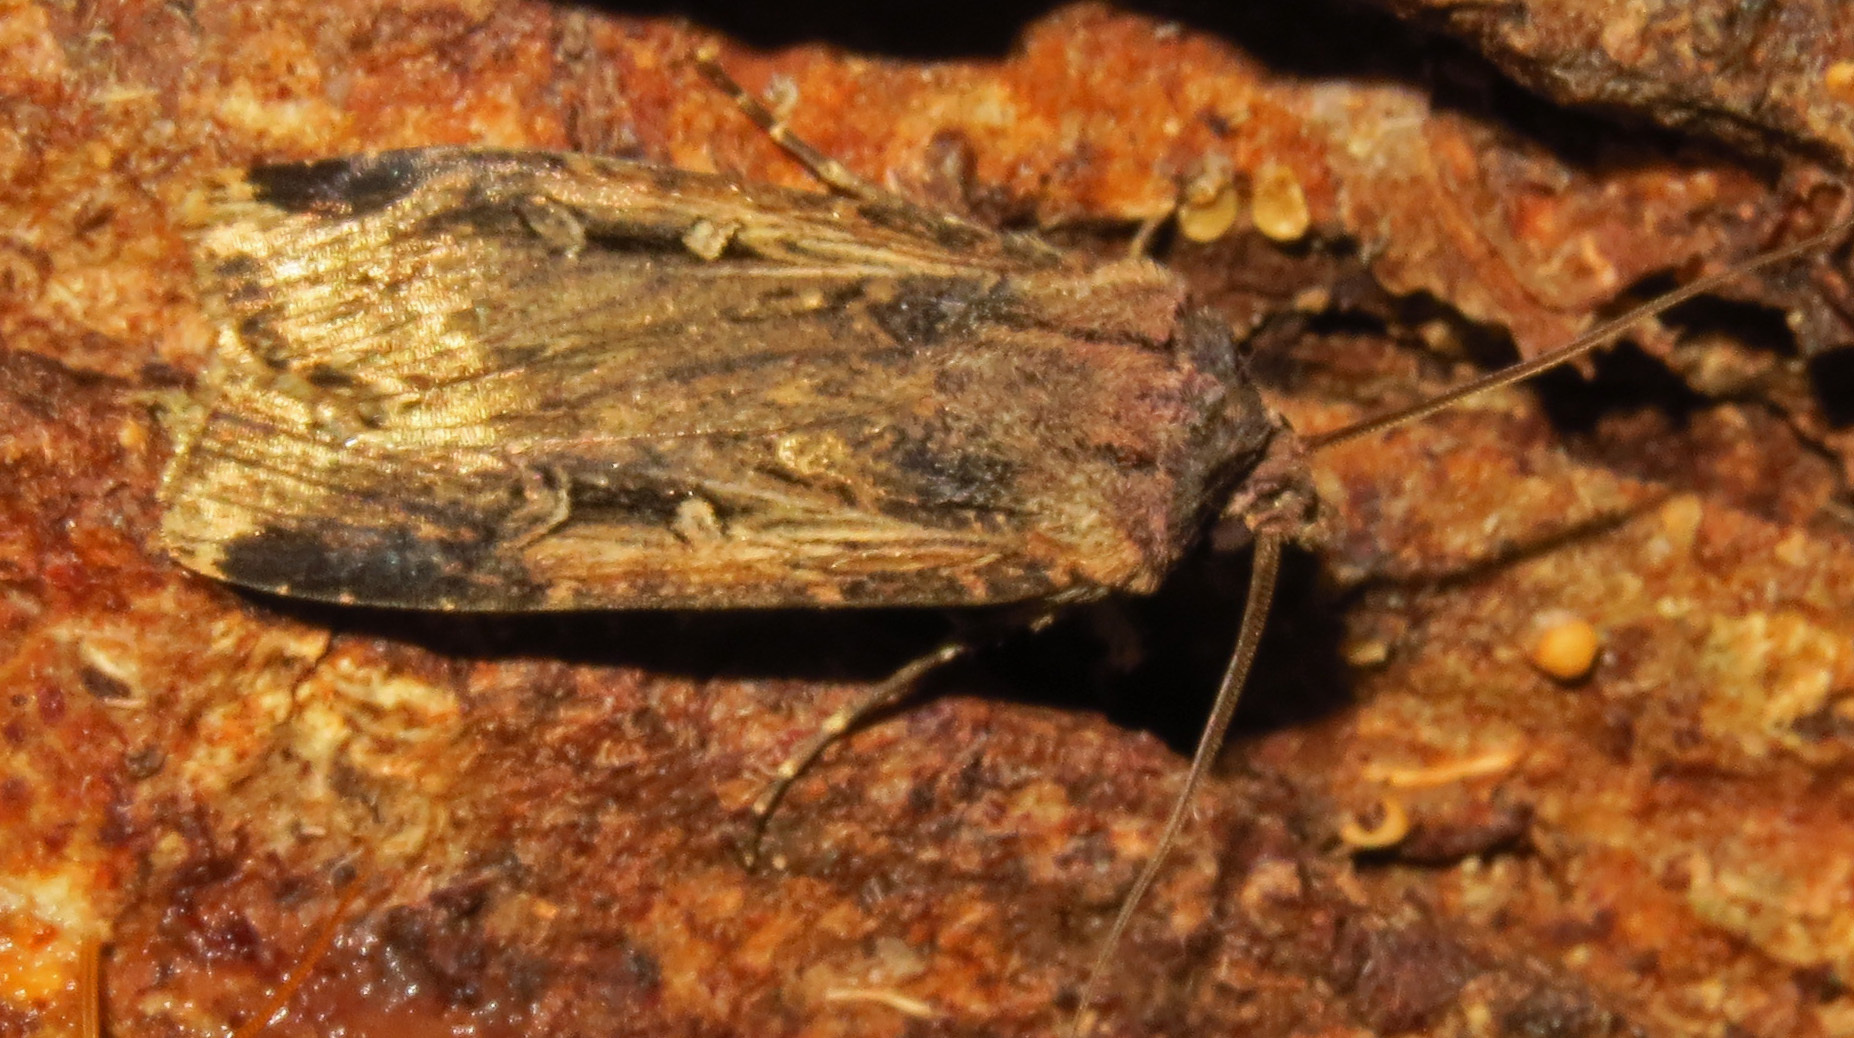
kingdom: Animalia
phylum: Arthropoda
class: Insecta
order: Lepidoptera
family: Noctuidae
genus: Feltia
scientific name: Feltia subterranea
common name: Granulate cutworm
